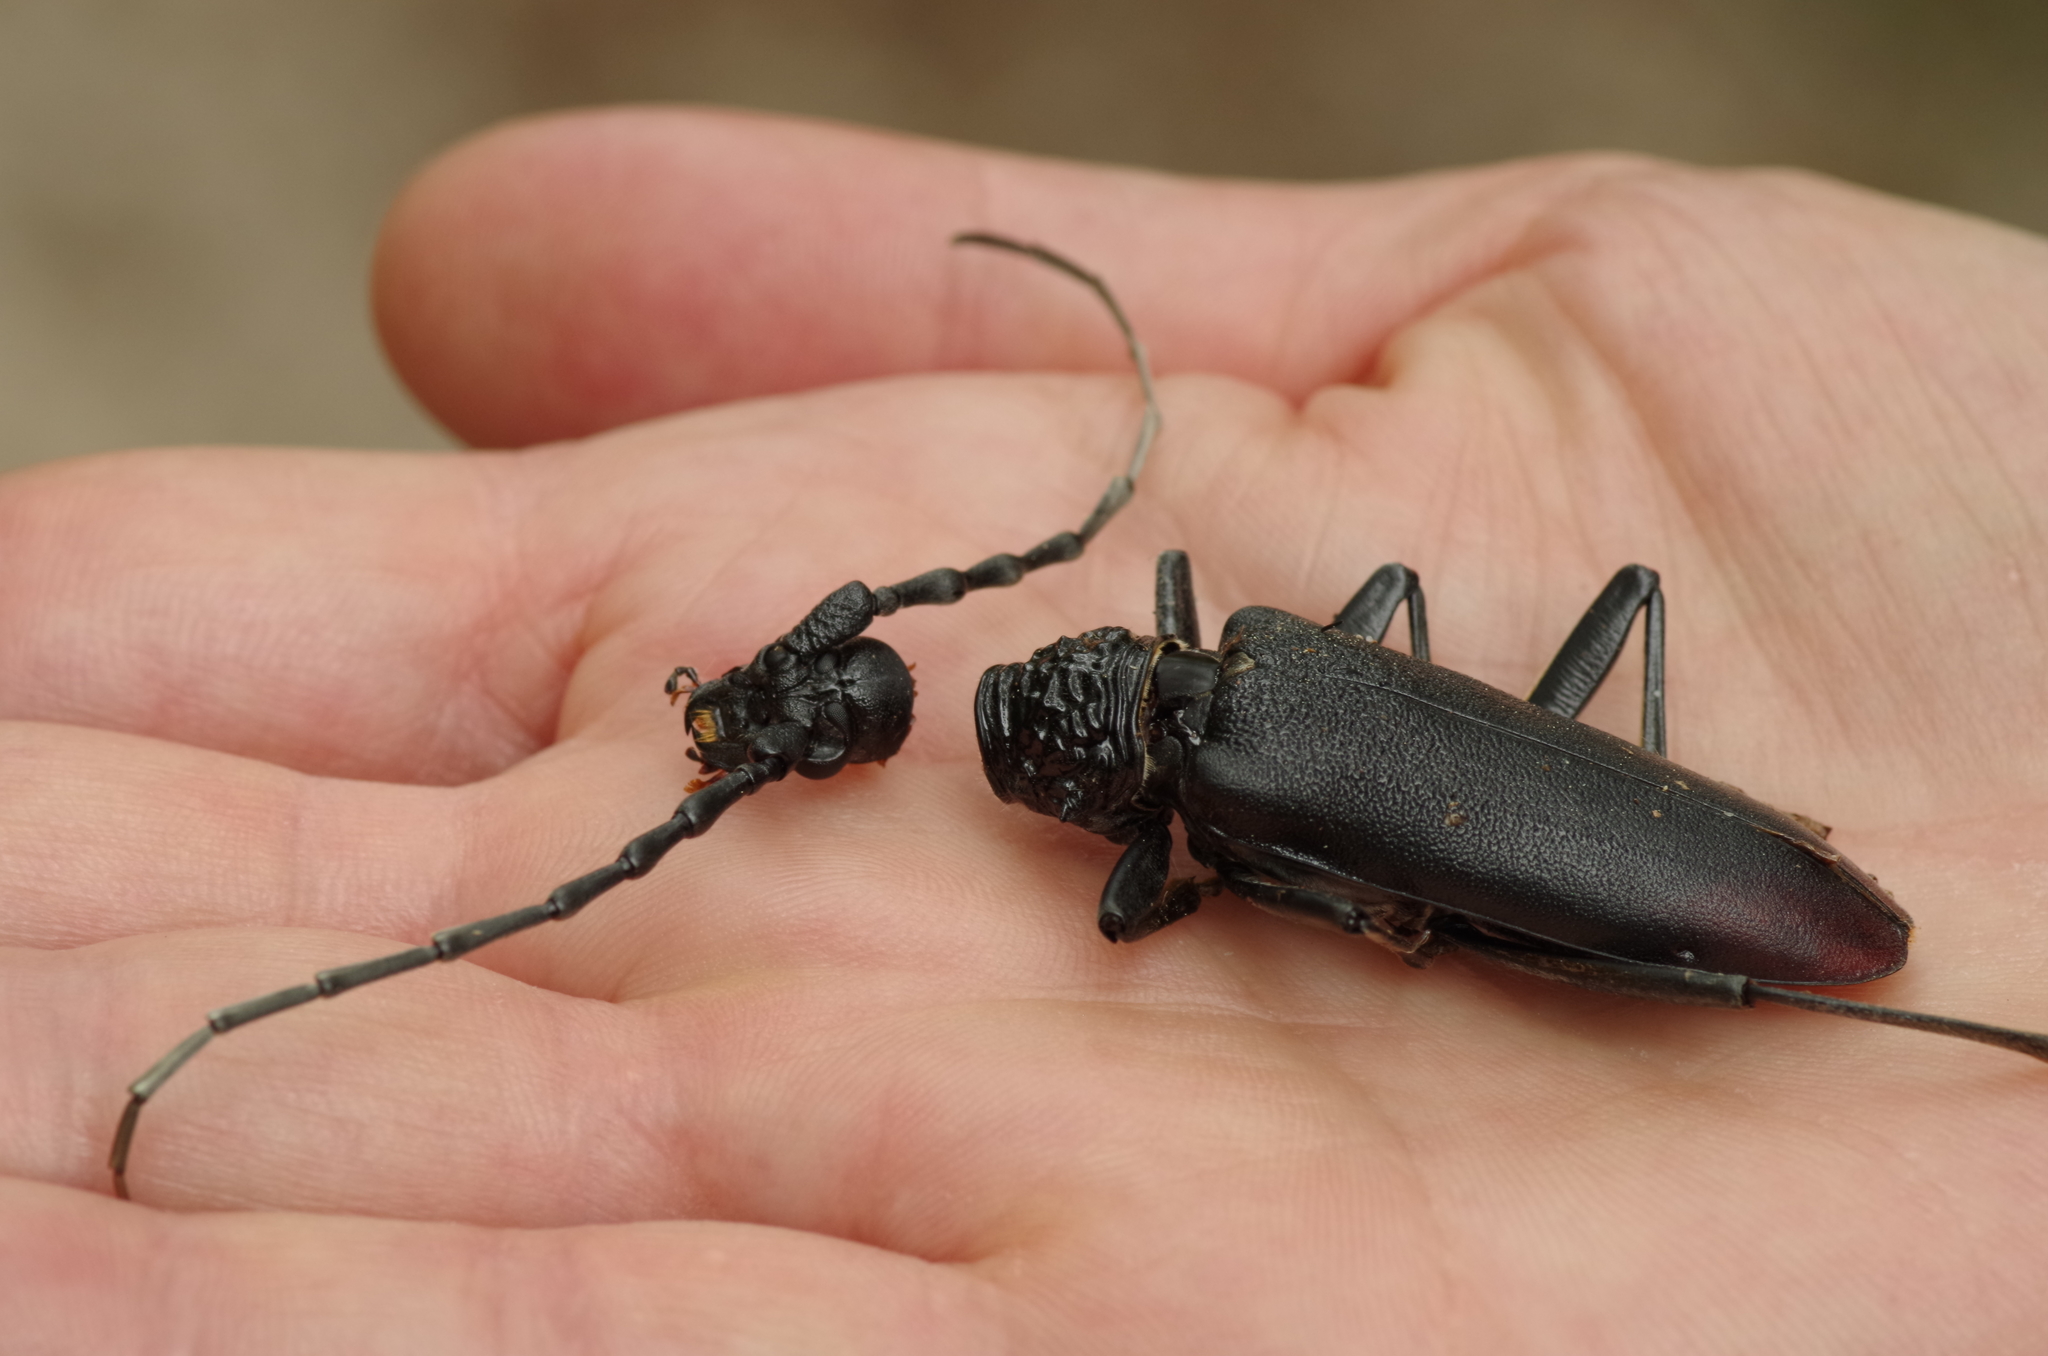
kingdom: Animalia
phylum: Arthropoda
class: Insecta
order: Coleoptera
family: Cerambycidae
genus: Cerambyx
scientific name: Cerambyx cerdo
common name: Cerambyx longicorn
